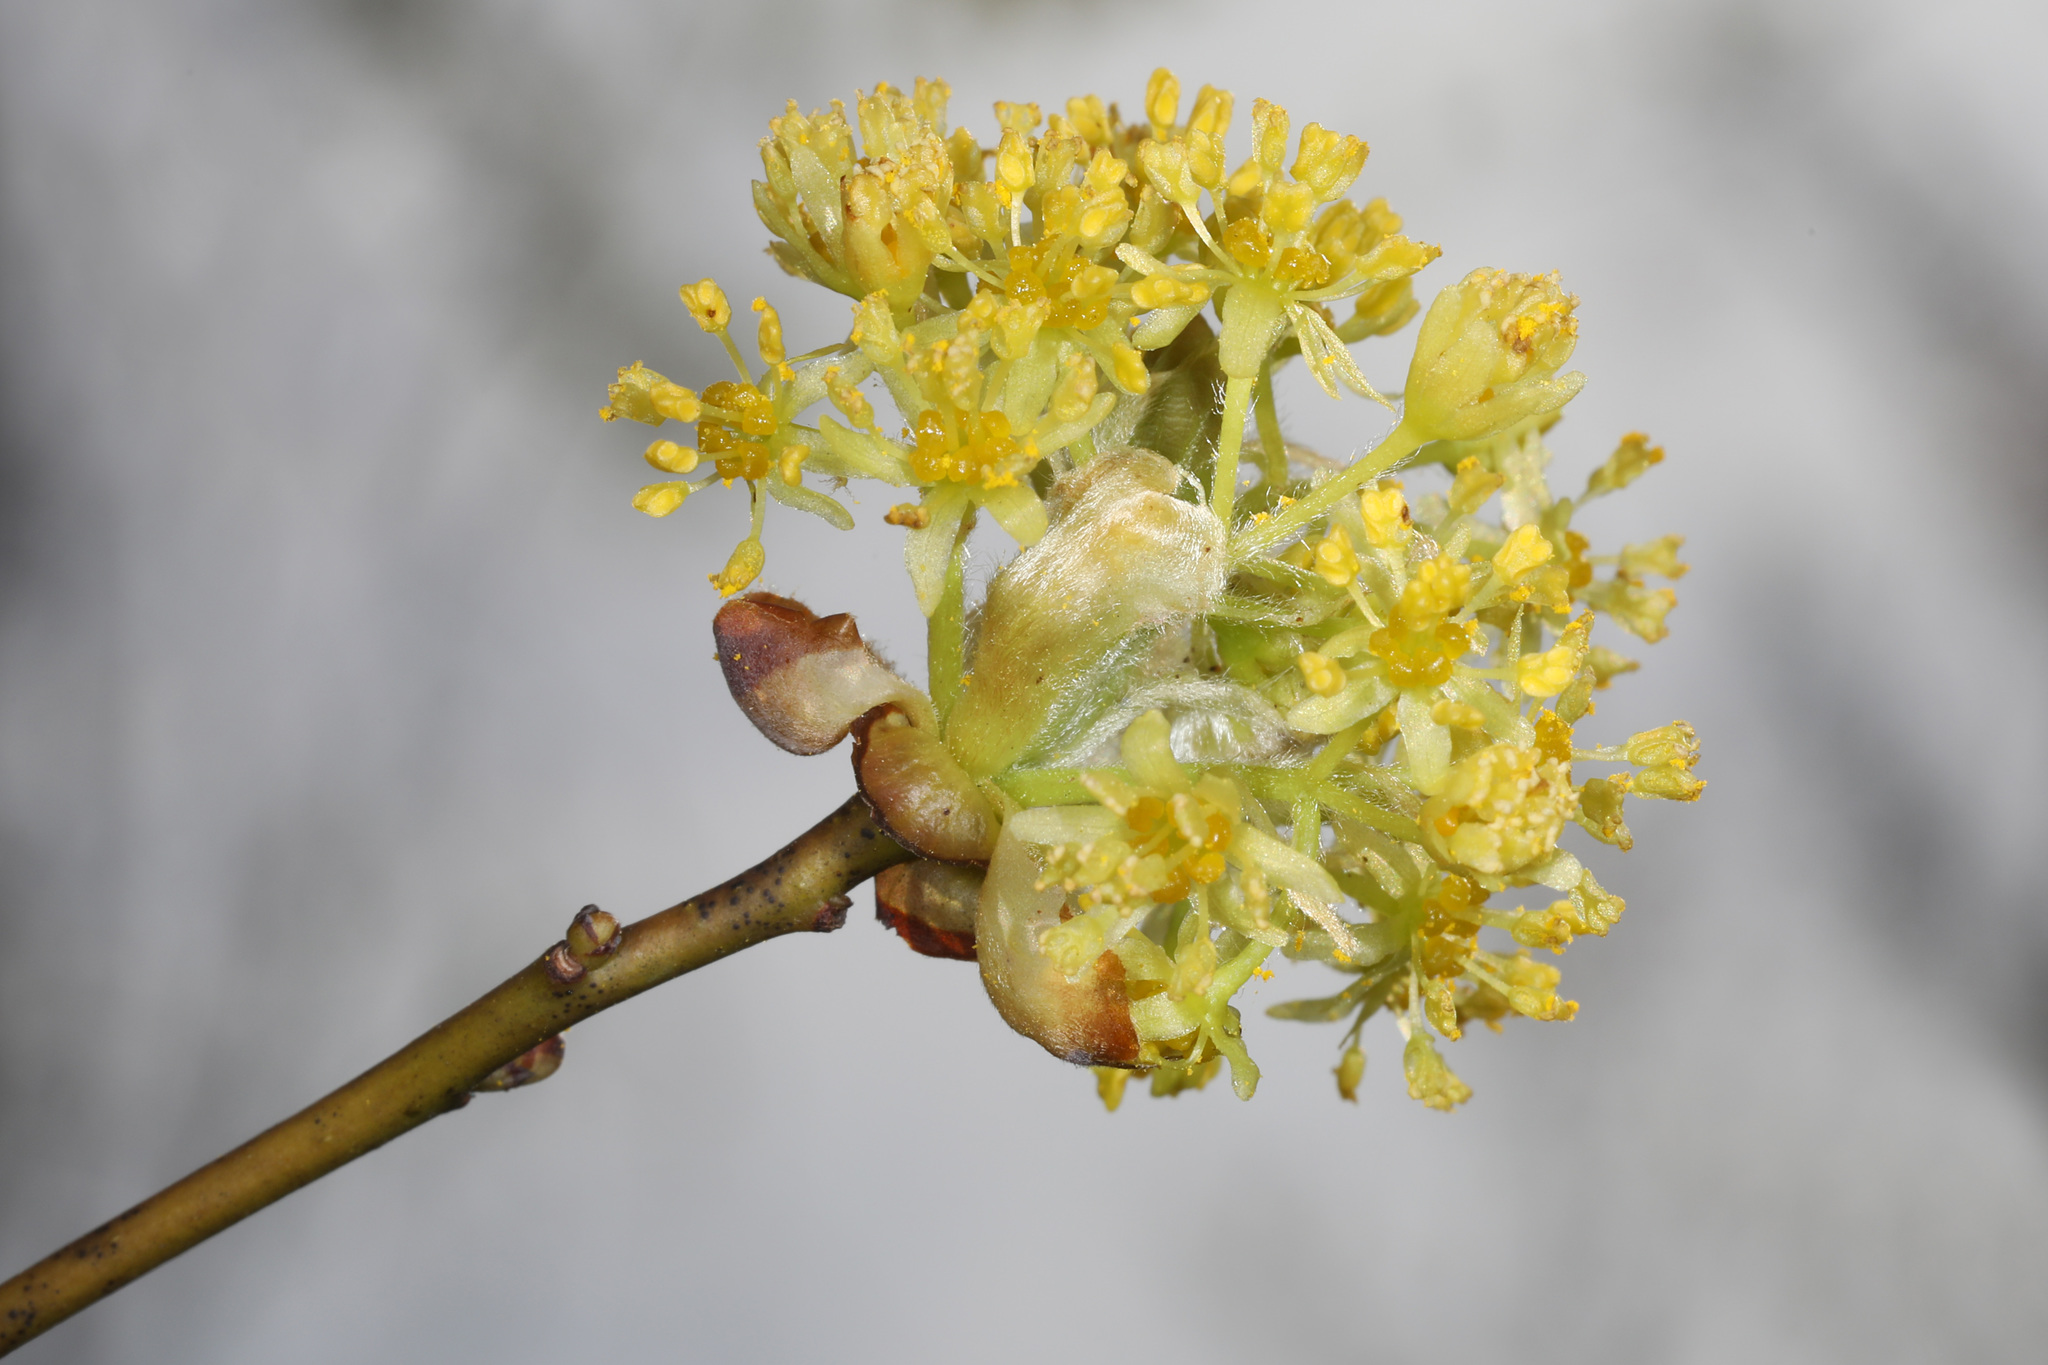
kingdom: Plantae
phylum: Tracheophyta
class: Magnoliopsida
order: Laurales
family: Lauraceae
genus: Sassafras
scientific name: Sassafras albidum
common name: Sassafras
